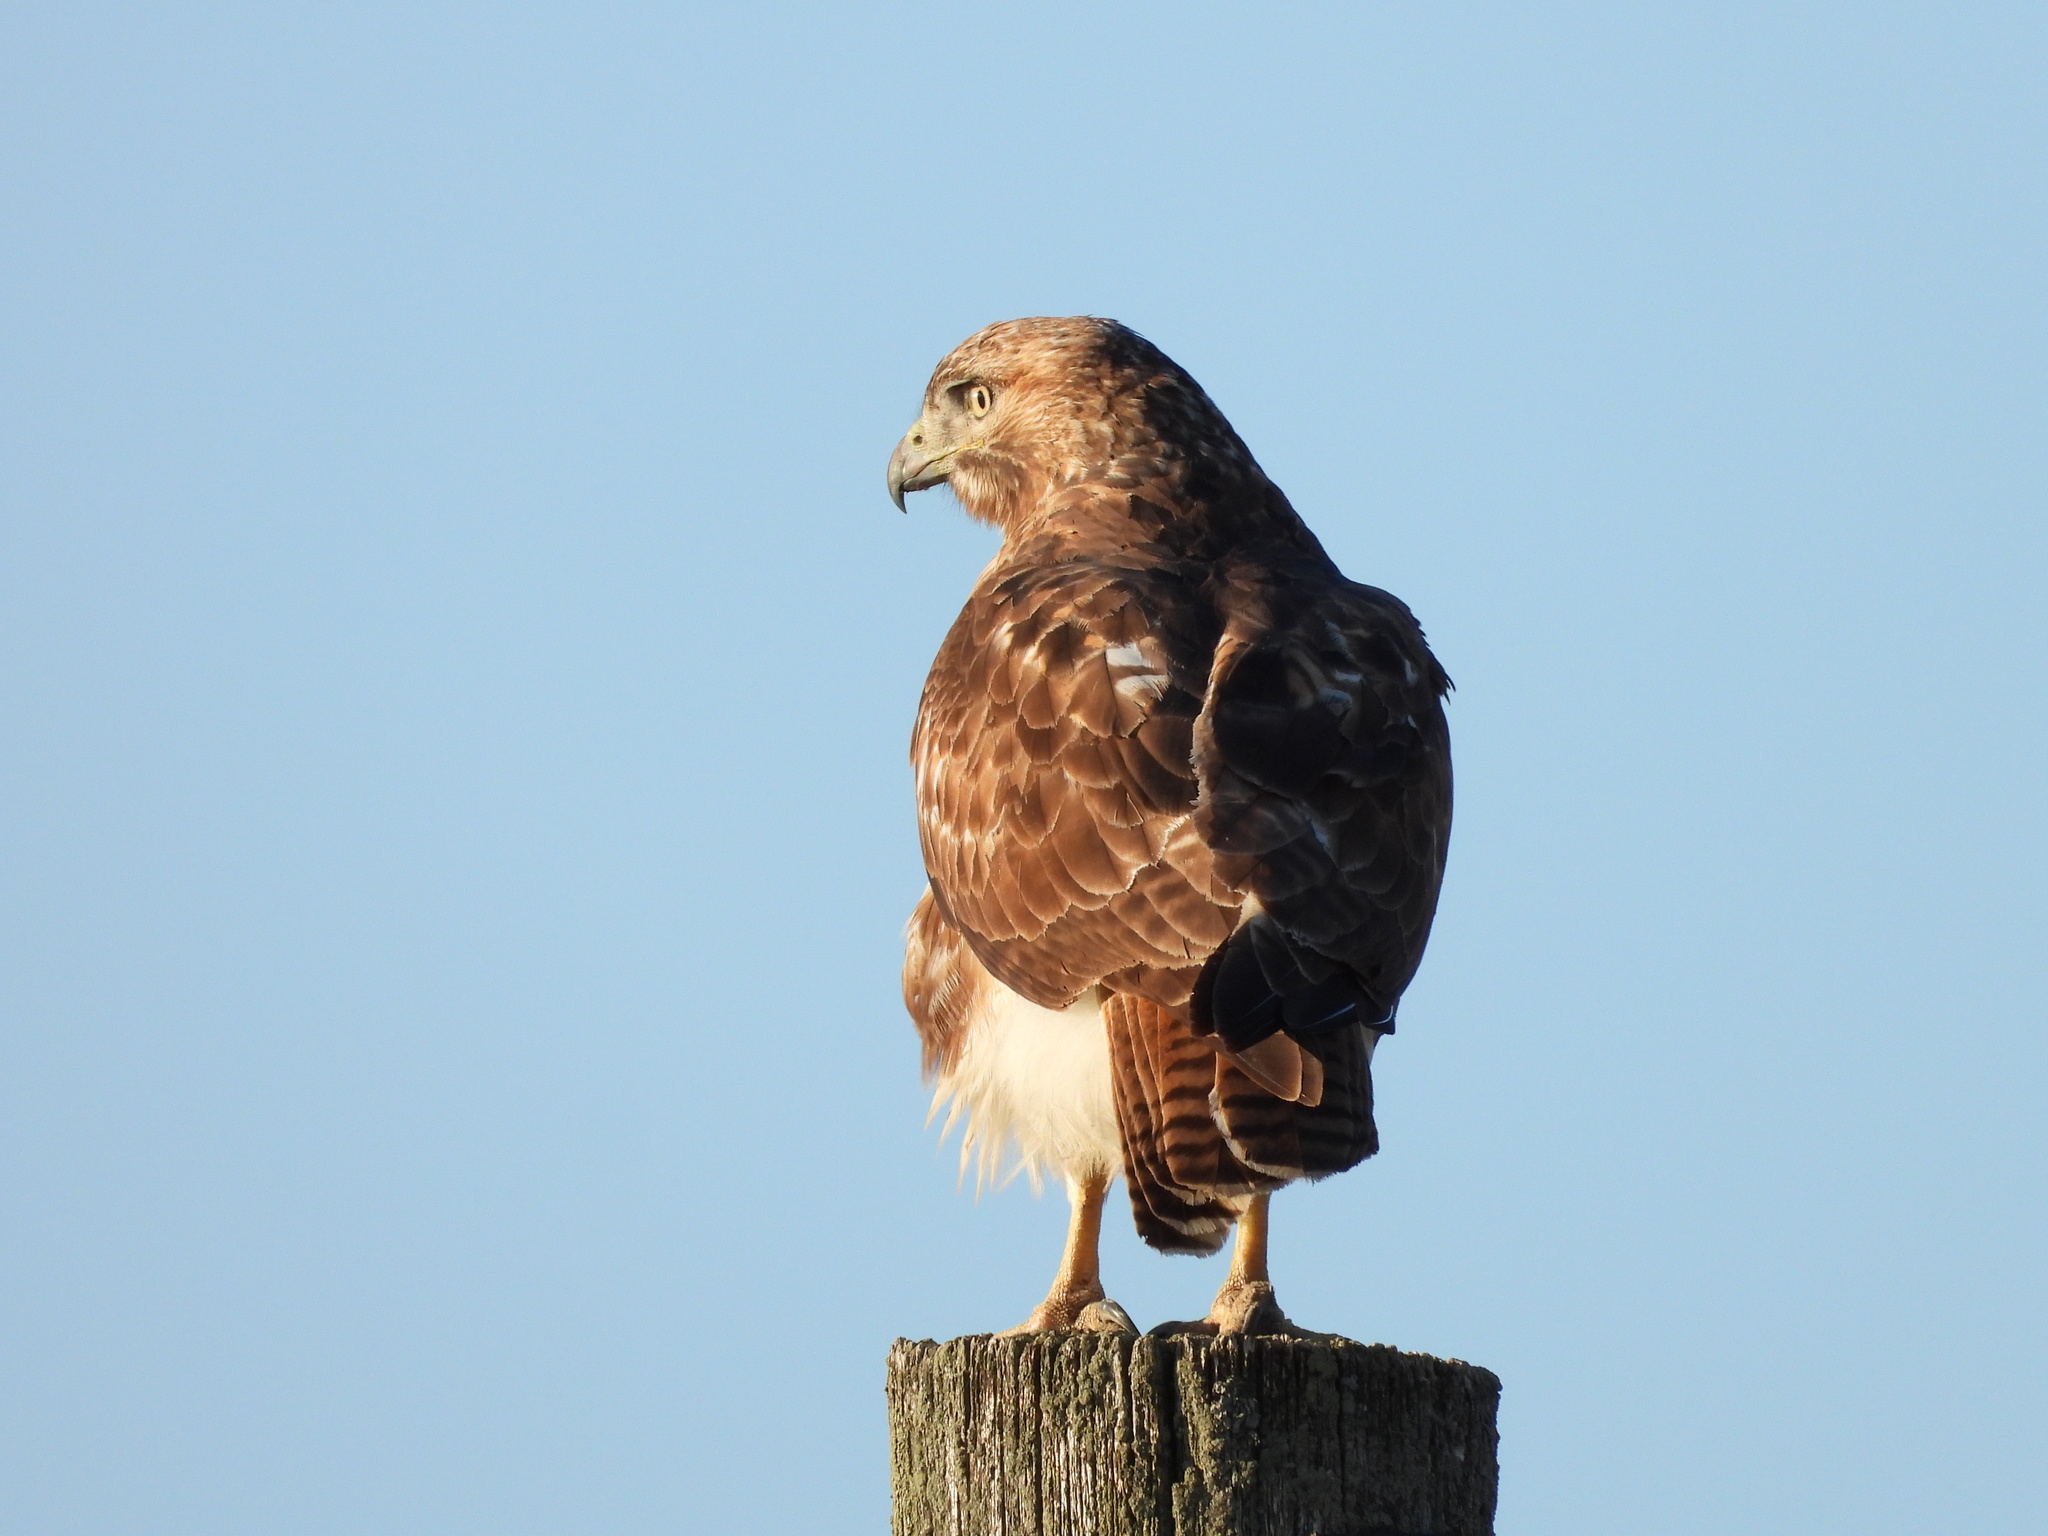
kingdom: Animalia
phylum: Chordata
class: Aves
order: Accipitriformes
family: Accipitridae
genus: Buteo
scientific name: Buteo jamaicensis
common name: Red-tailed hawk
